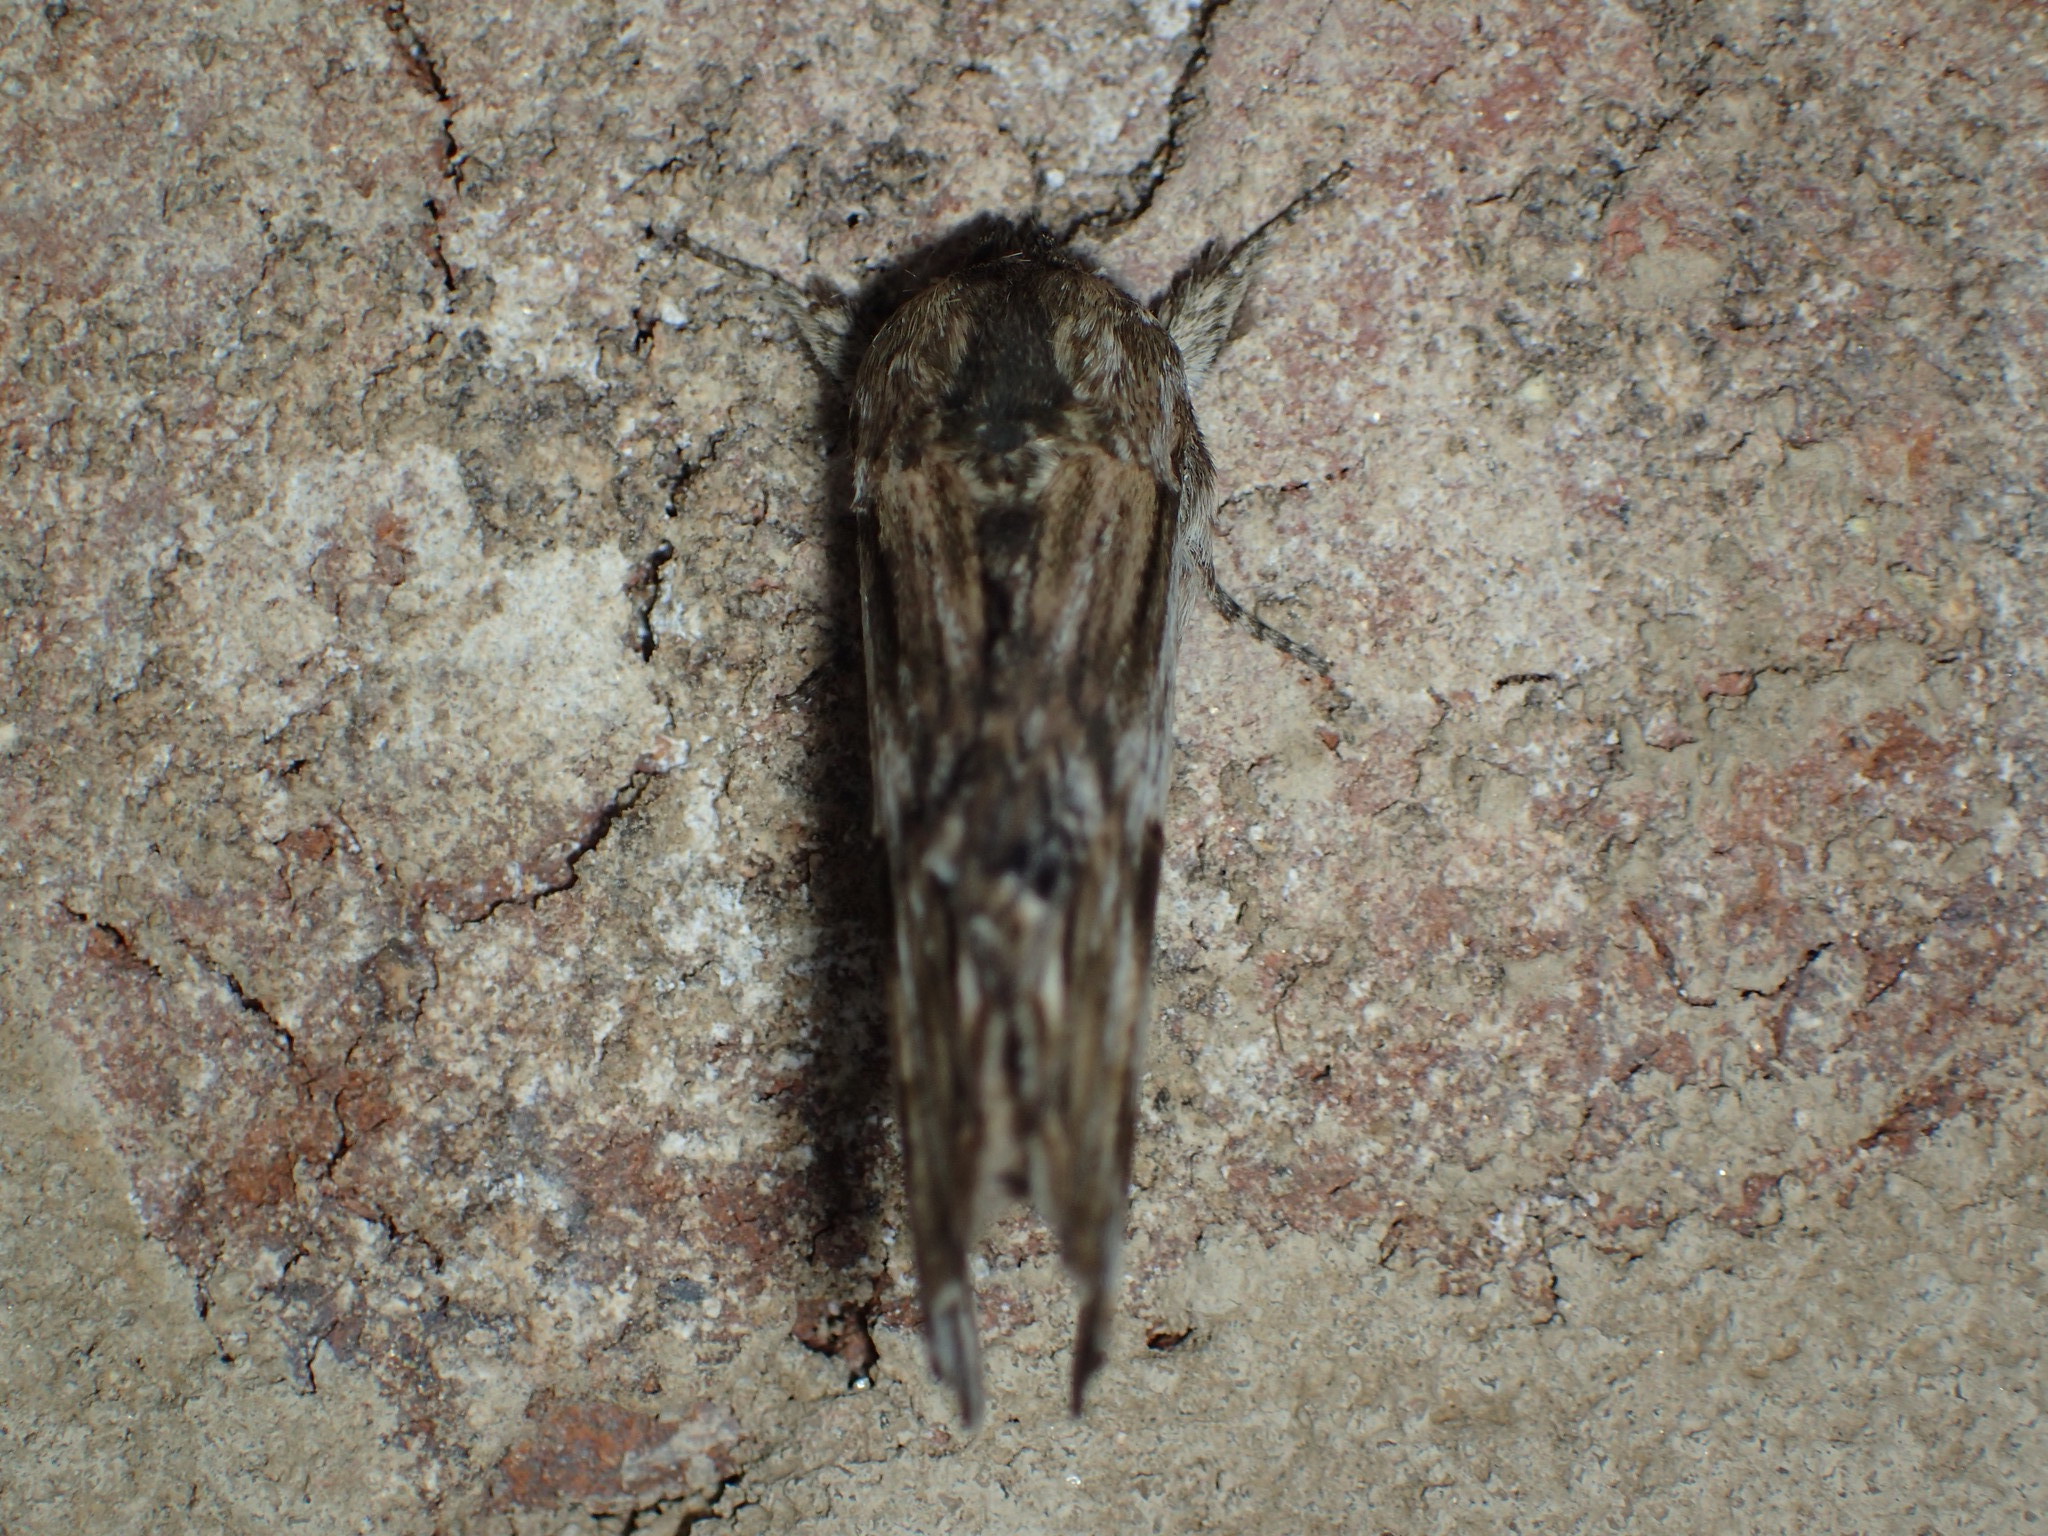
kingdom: Animalia
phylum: Arthropoda
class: Insecta
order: Lepidoptera
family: Notodontidae
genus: Oligocentria
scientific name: Oligocentria Ianassa lignicolor
